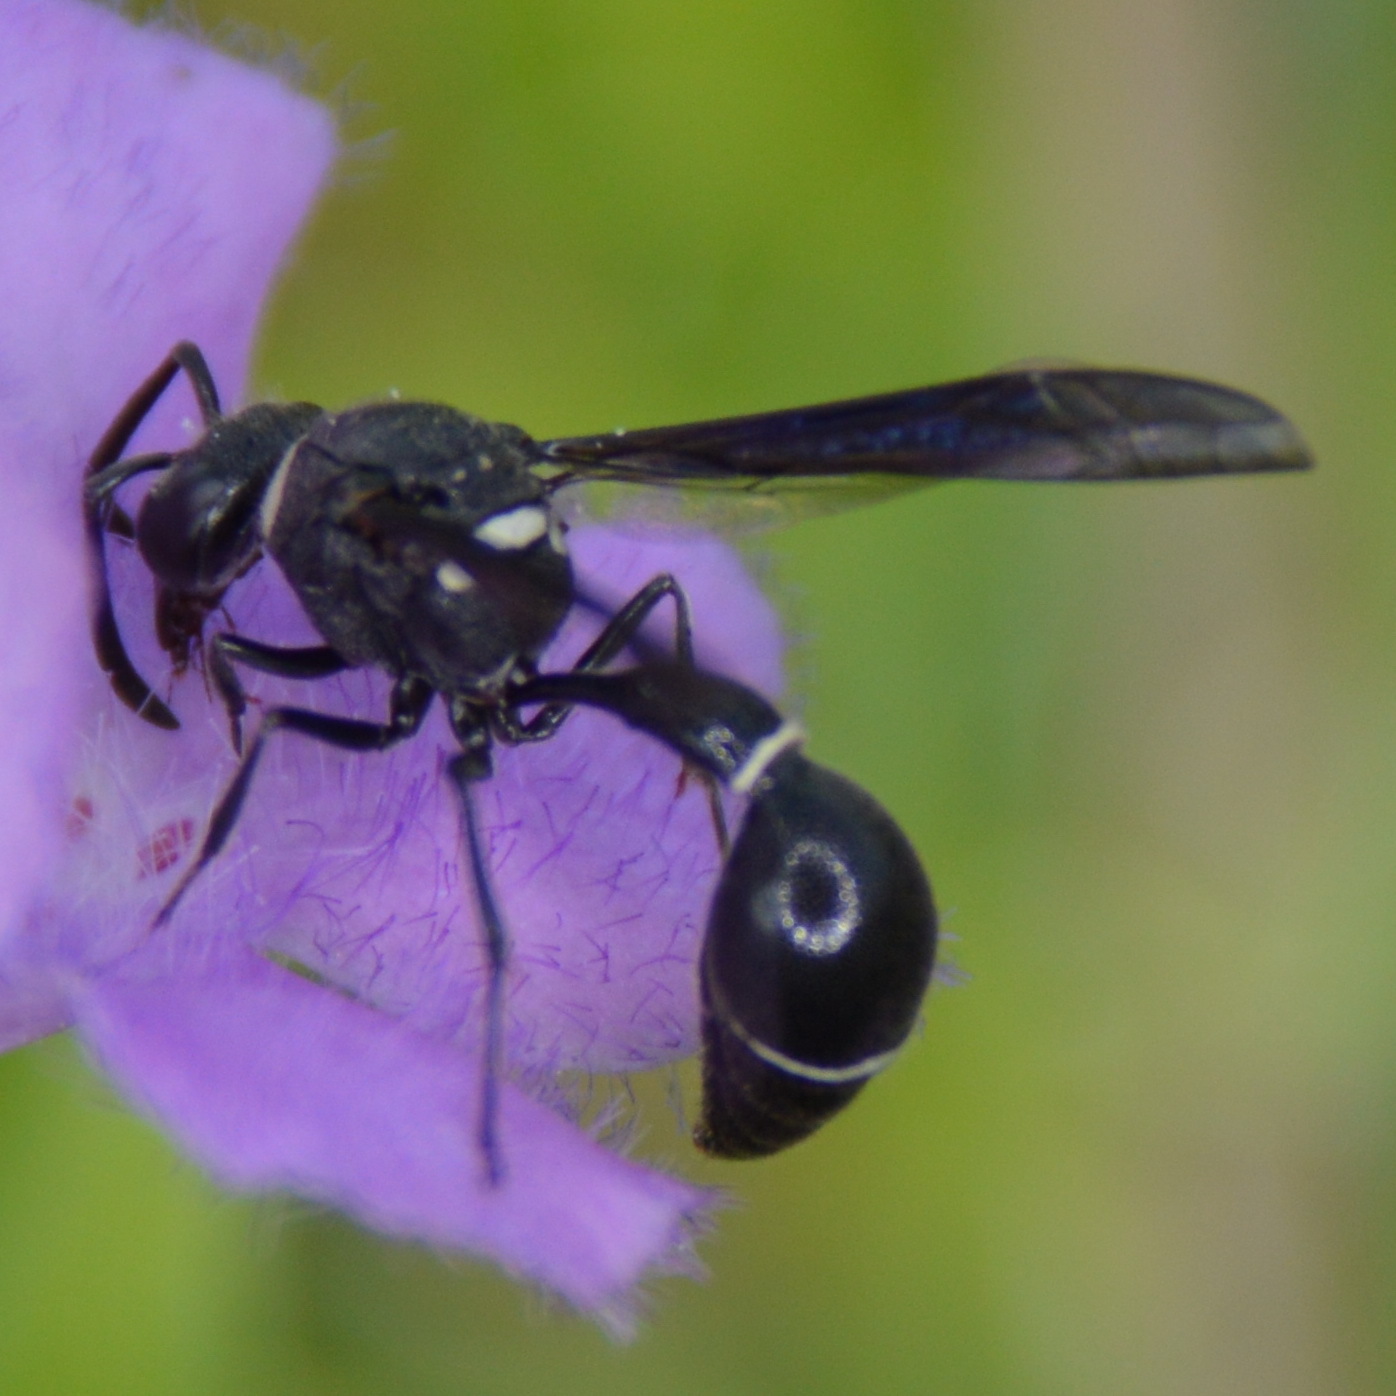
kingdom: Animalia
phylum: Arthropoda
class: Insecta
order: Hymenoptera
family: Vespidae
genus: Eumenes
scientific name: Eumenes fraternus
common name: Fraternal potter wasp
